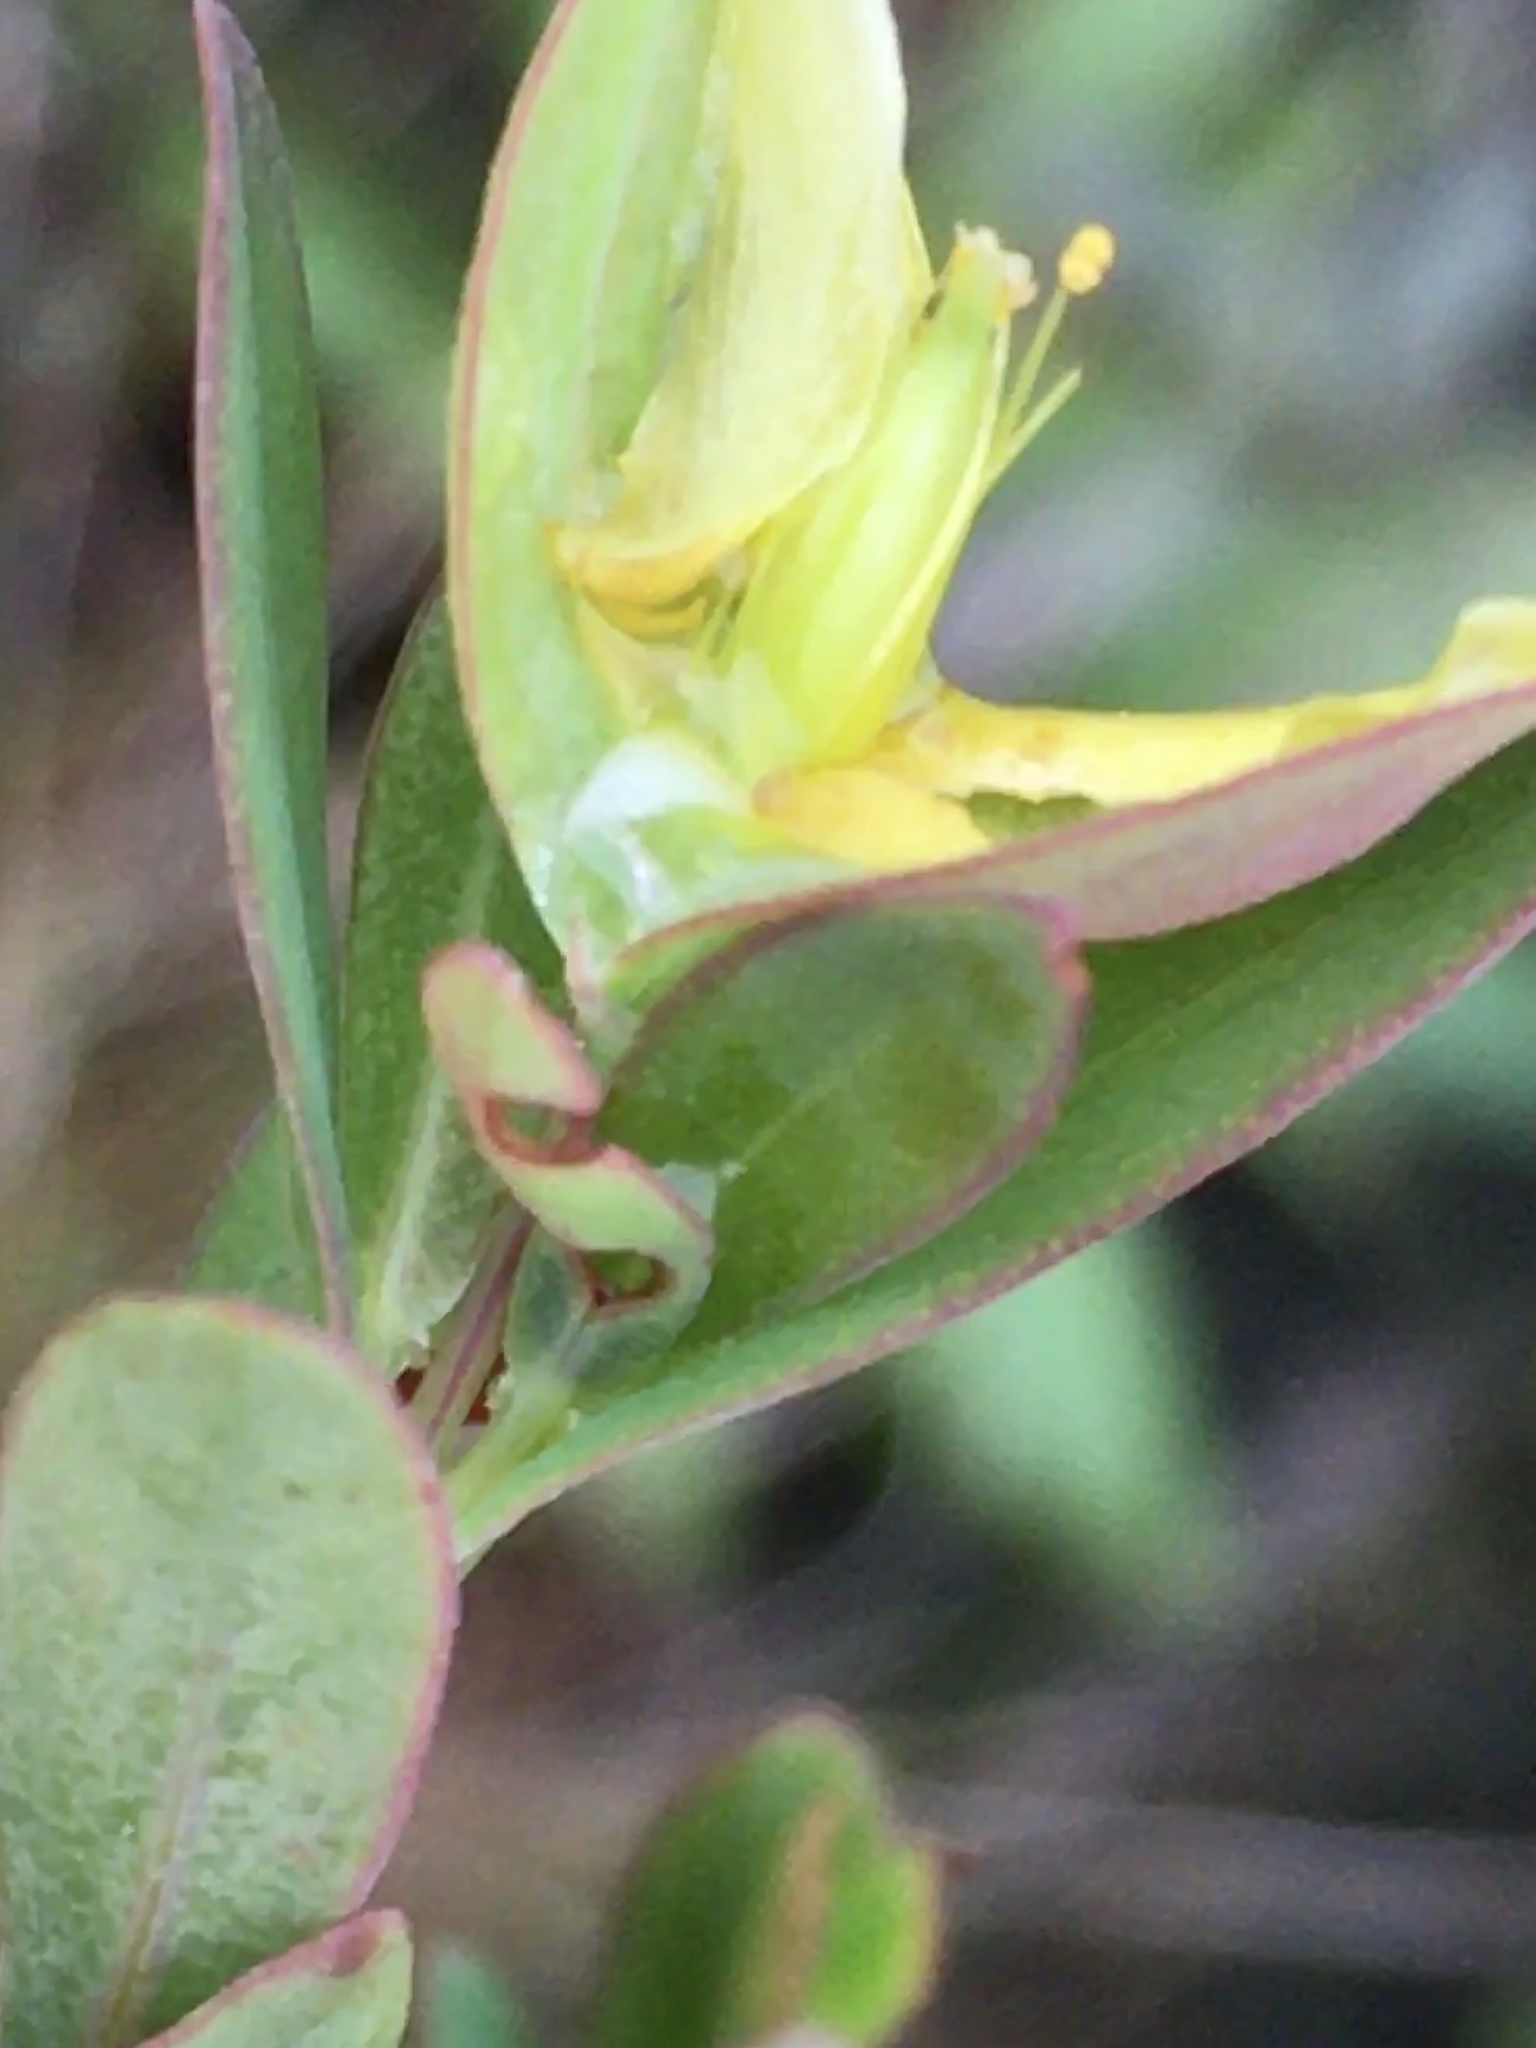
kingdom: Plantae
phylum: Tracheophyta
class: Magnoliopsida
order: Malpighiales
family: Hypericaceae
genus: Hypericum
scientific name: Hypericum hypericoides
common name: St. andrew's cross
